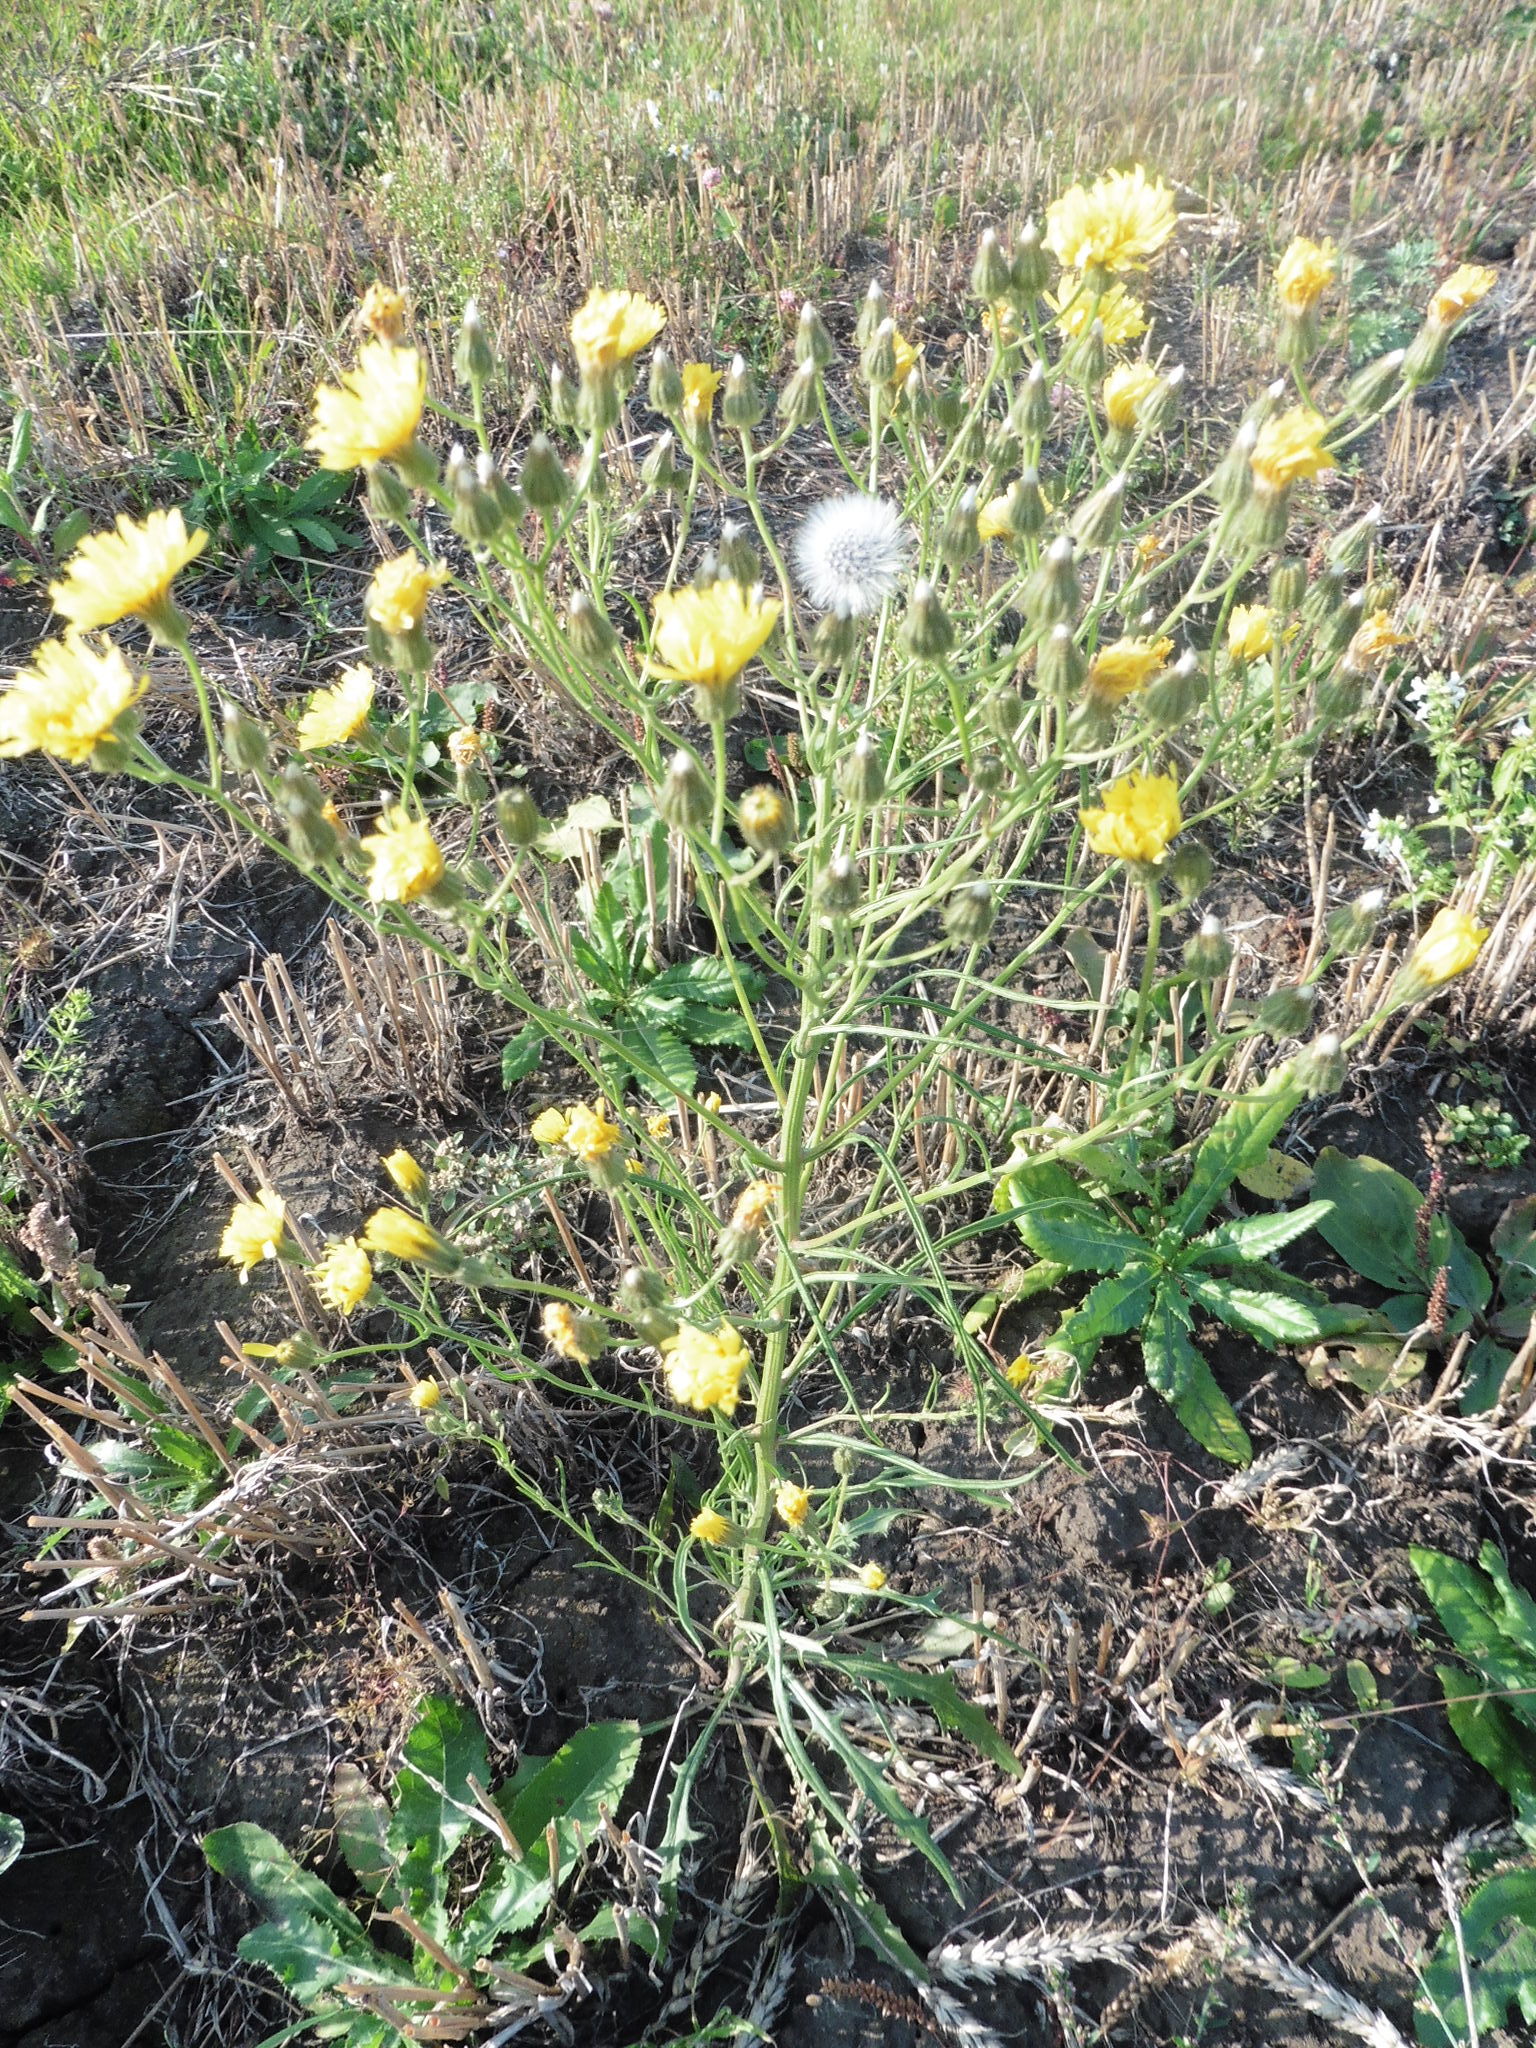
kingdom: Plantae
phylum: Tracheophyta
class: Magnoliopsida
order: Asterales
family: Asteraceae
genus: Crepis
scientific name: Crepis tectorum
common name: Narrow-leaved hawk's-beard
